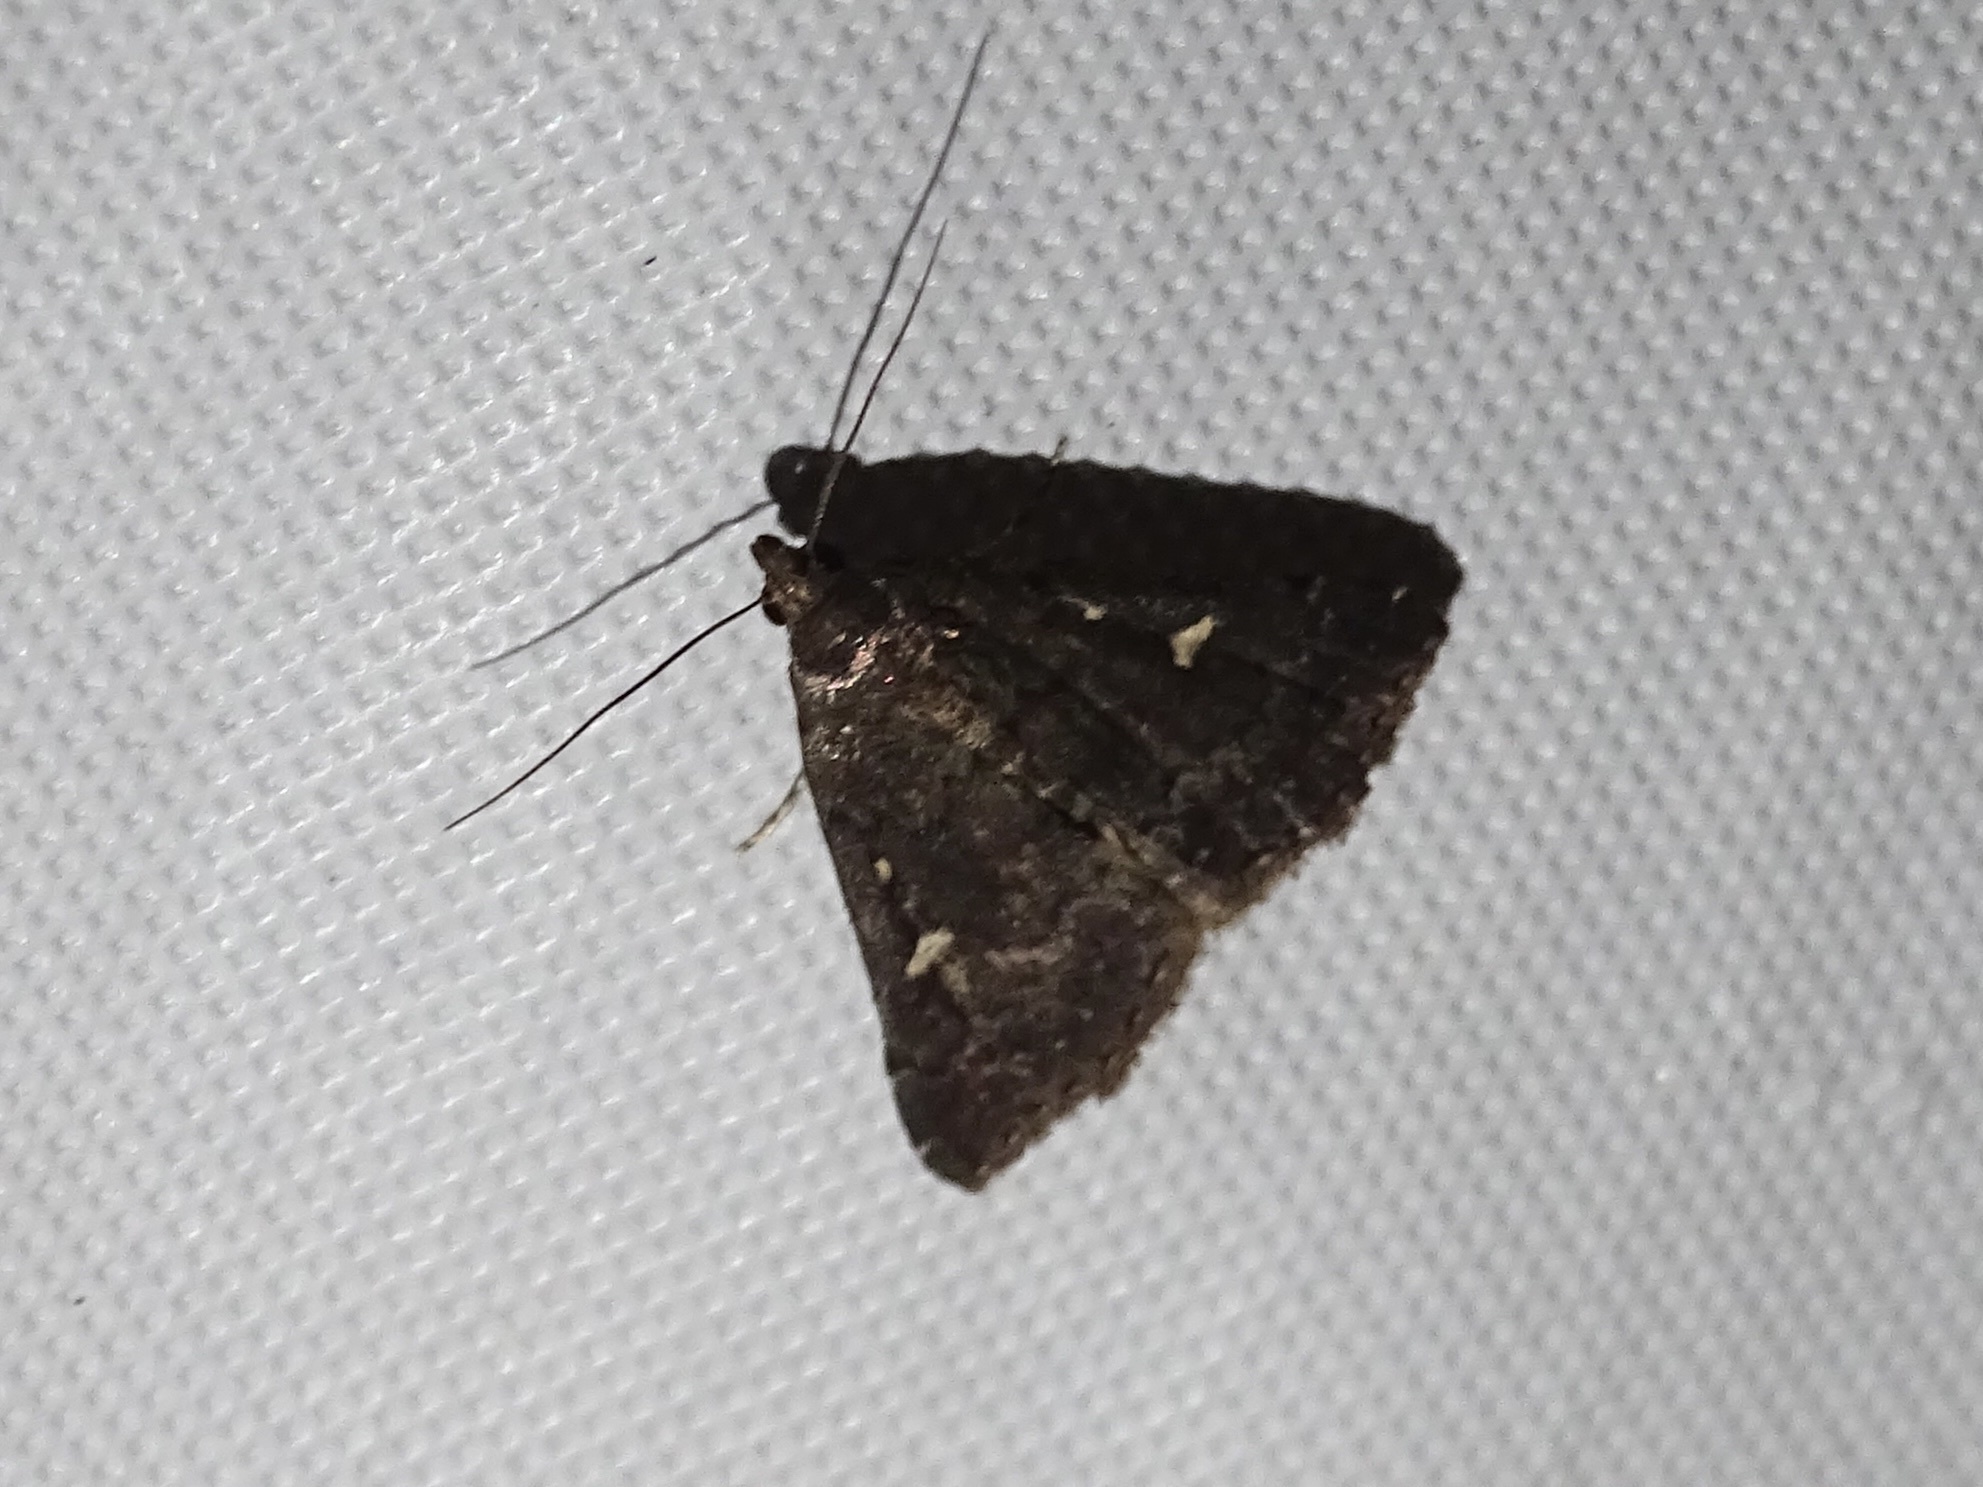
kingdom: Animalia
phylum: Arthropoda
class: Insecta
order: Lepidoptera
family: Erebidae
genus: Tetanolita
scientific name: Tetanolita mynesalis
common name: Smoky tetanolita moth
